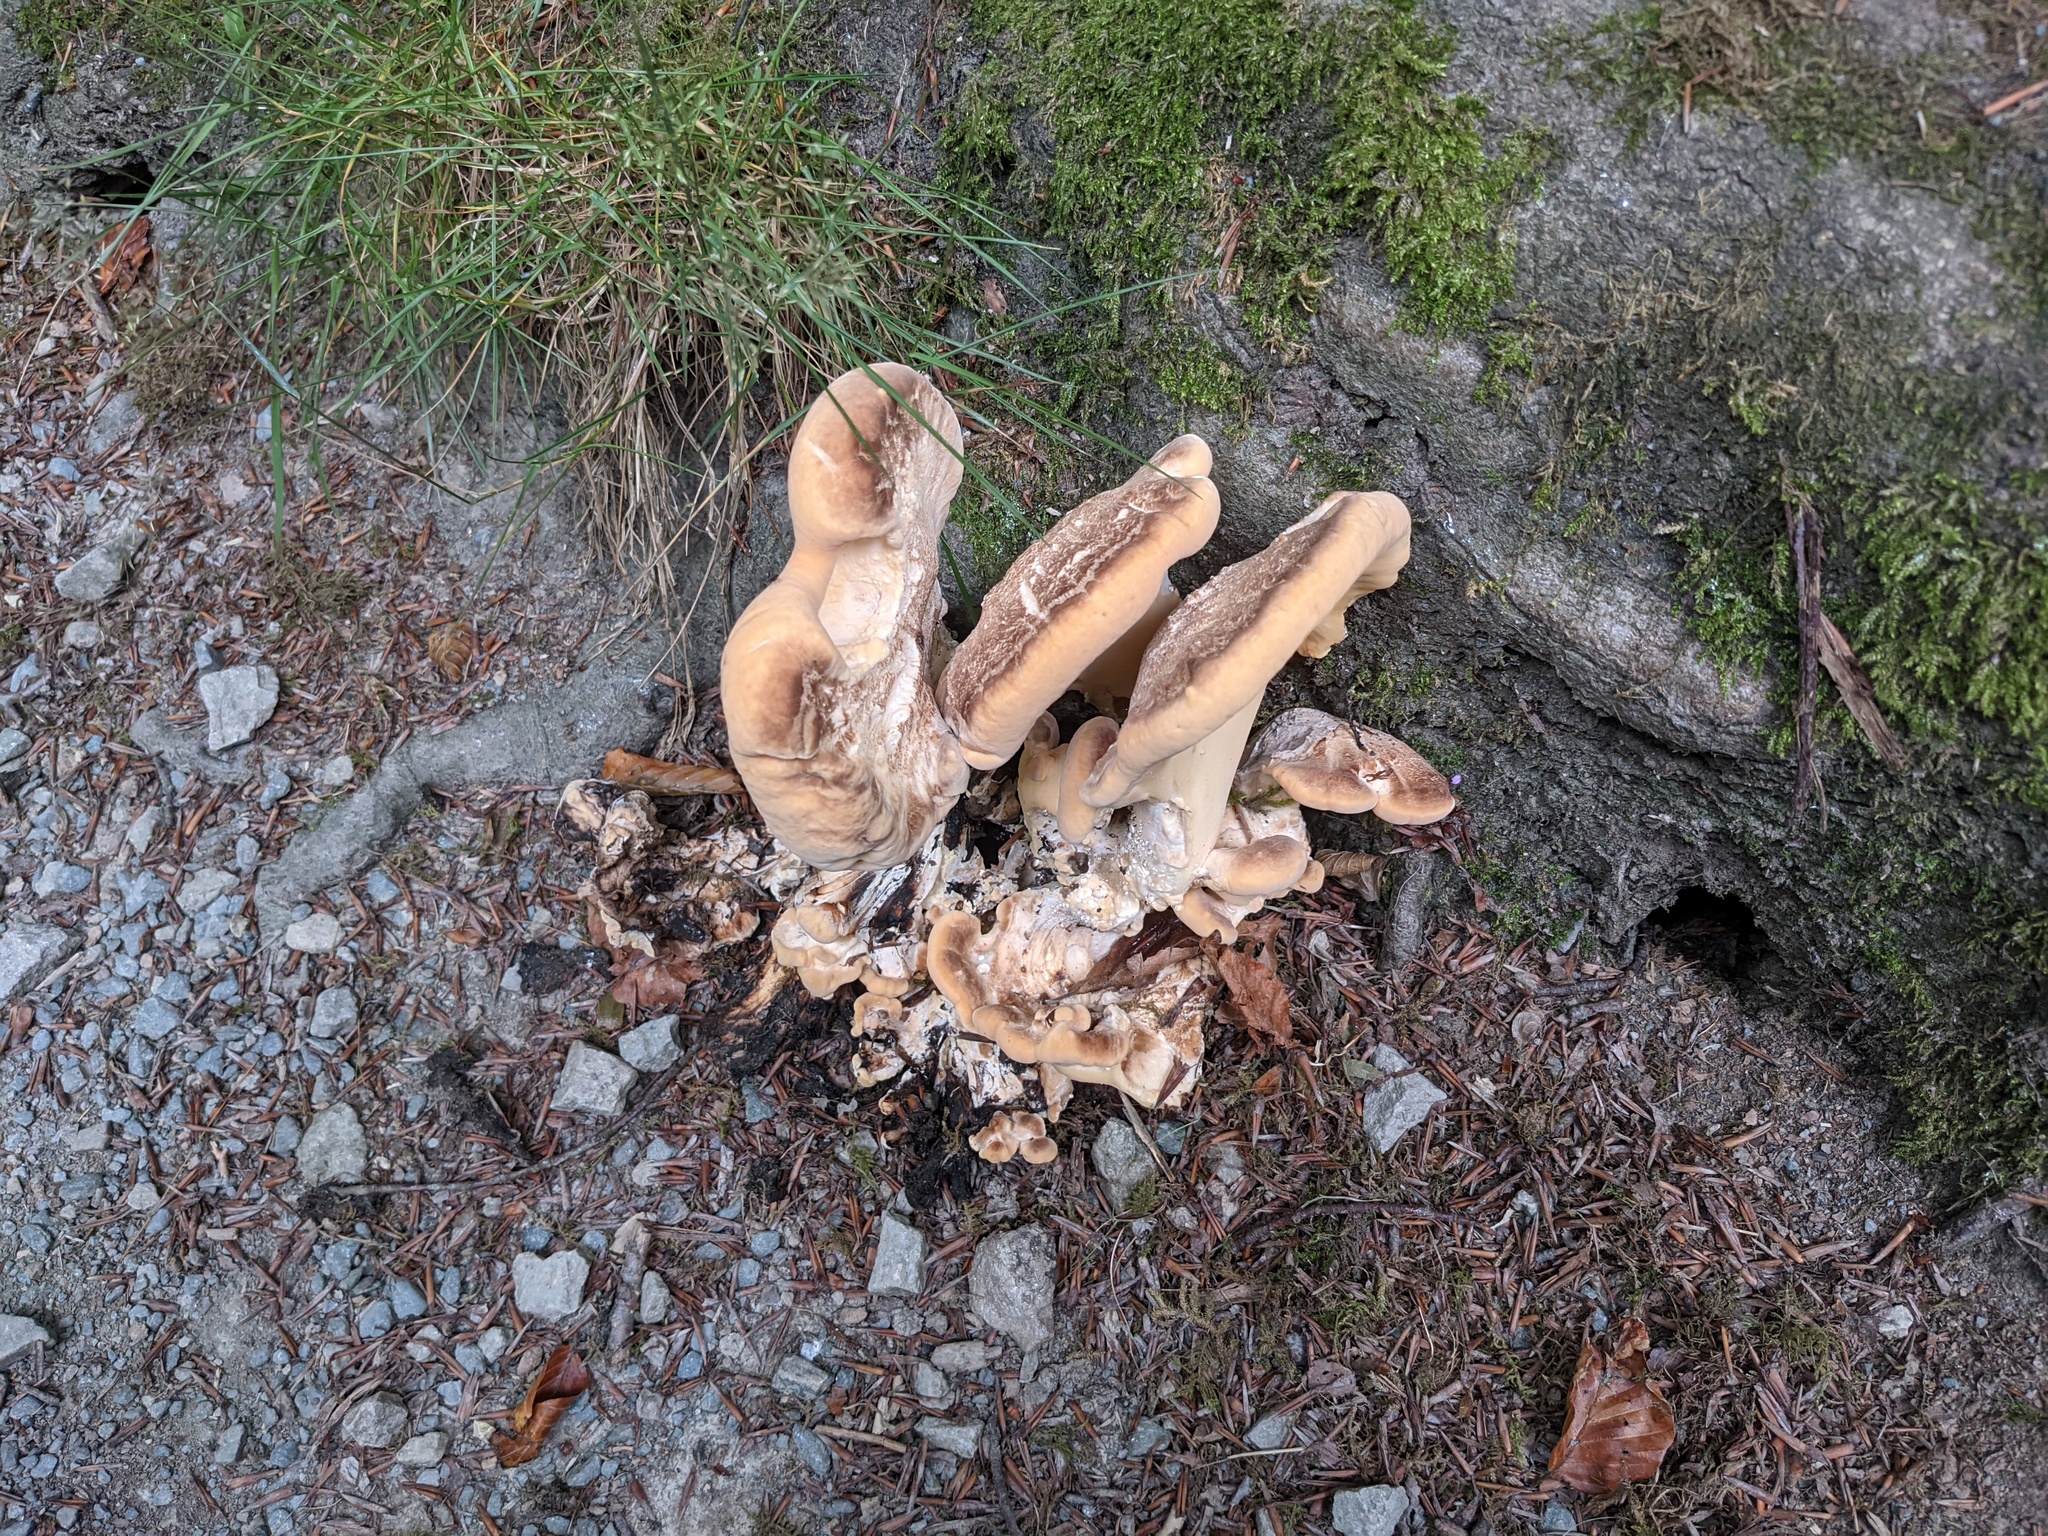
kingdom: Fungi
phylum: Basidiomycota
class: Agaricomycetes
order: Polyporales
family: Meripilaceae
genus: Meripilus
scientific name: Meripilus giganteus
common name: Giant polypore
